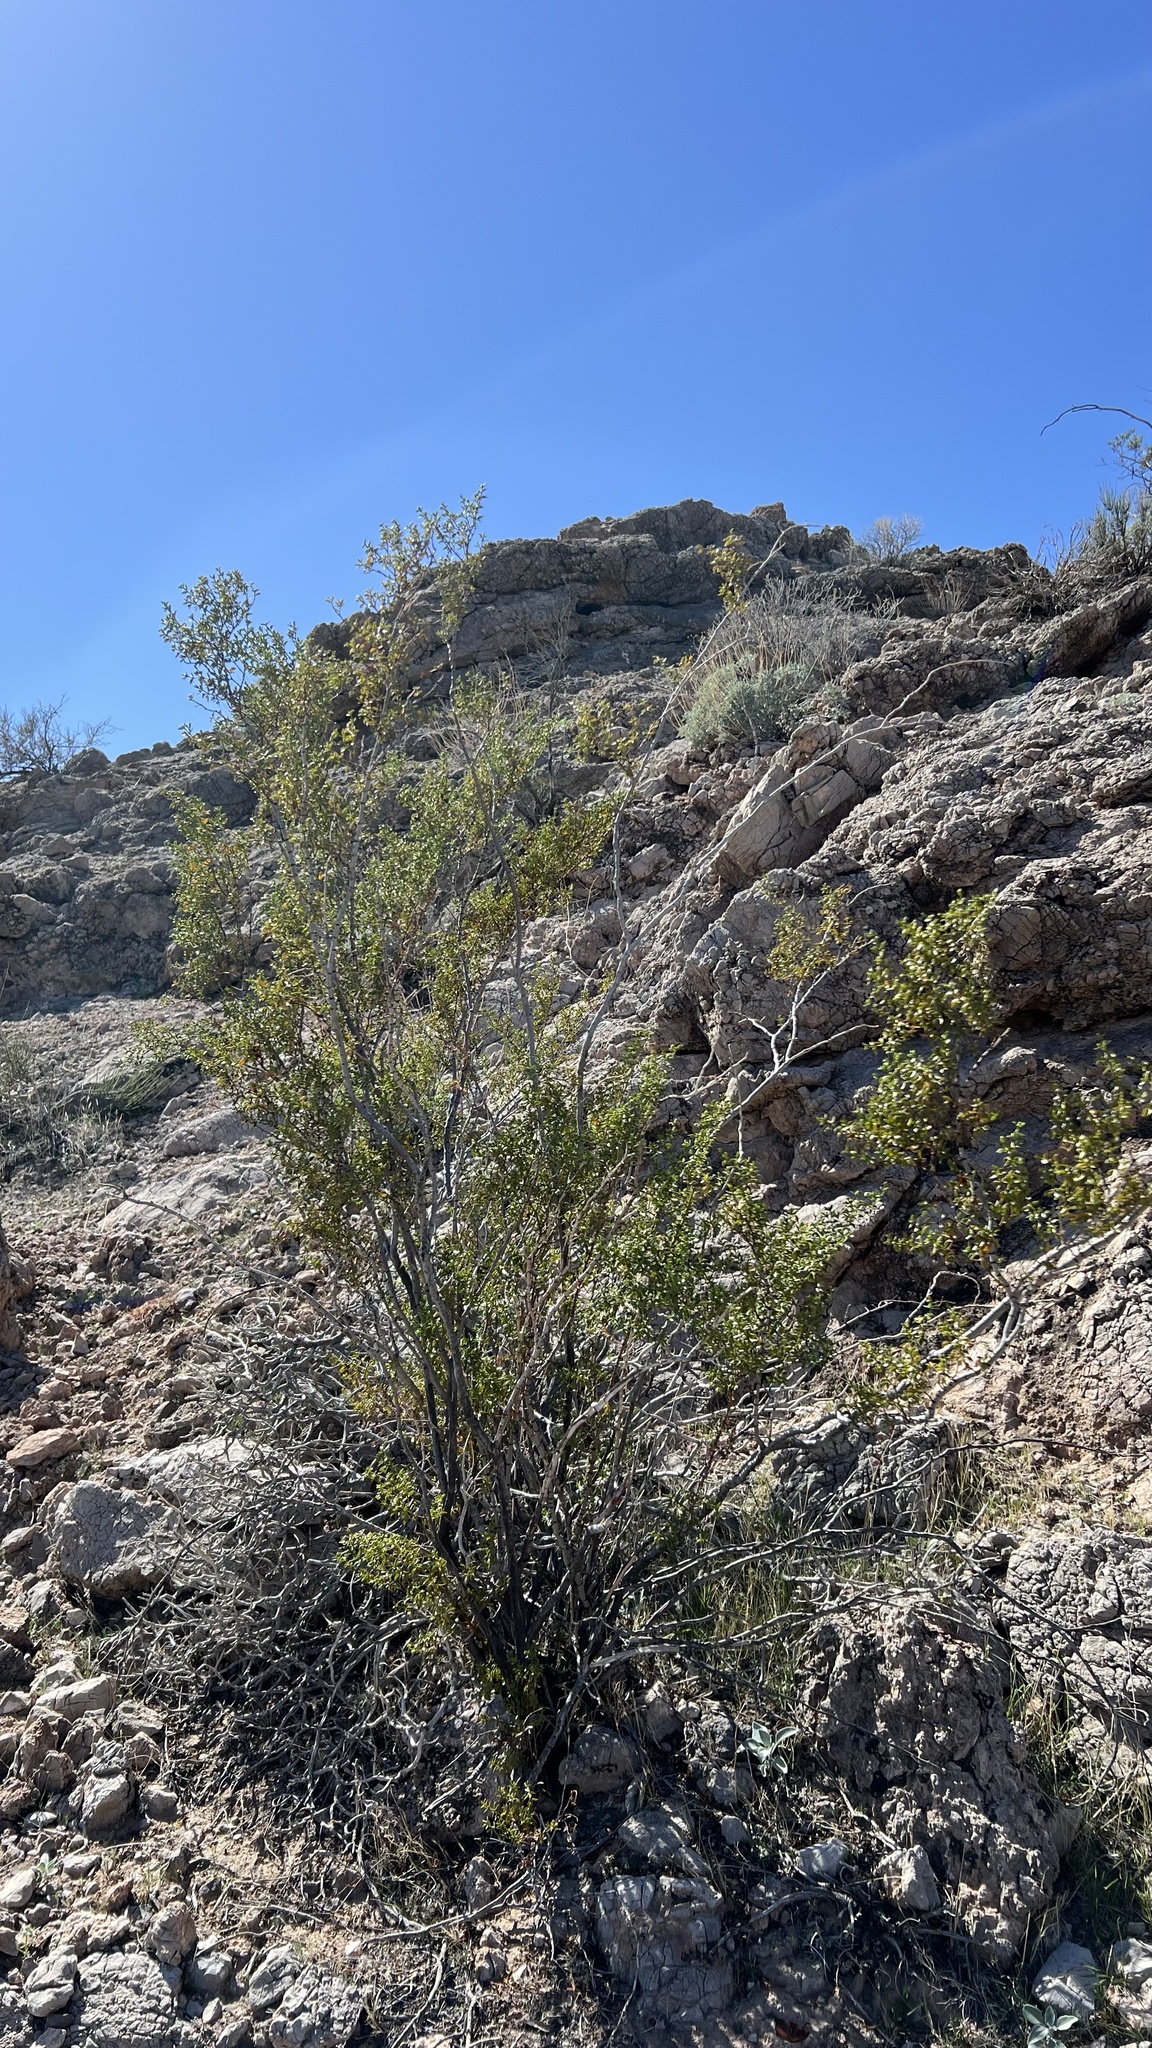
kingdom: Plantae
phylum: Tracheophyta
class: Magnoliopsida
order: Zygophyllales
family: Zygophyllaceae
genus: Larrea
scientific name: Larrea tridentata
